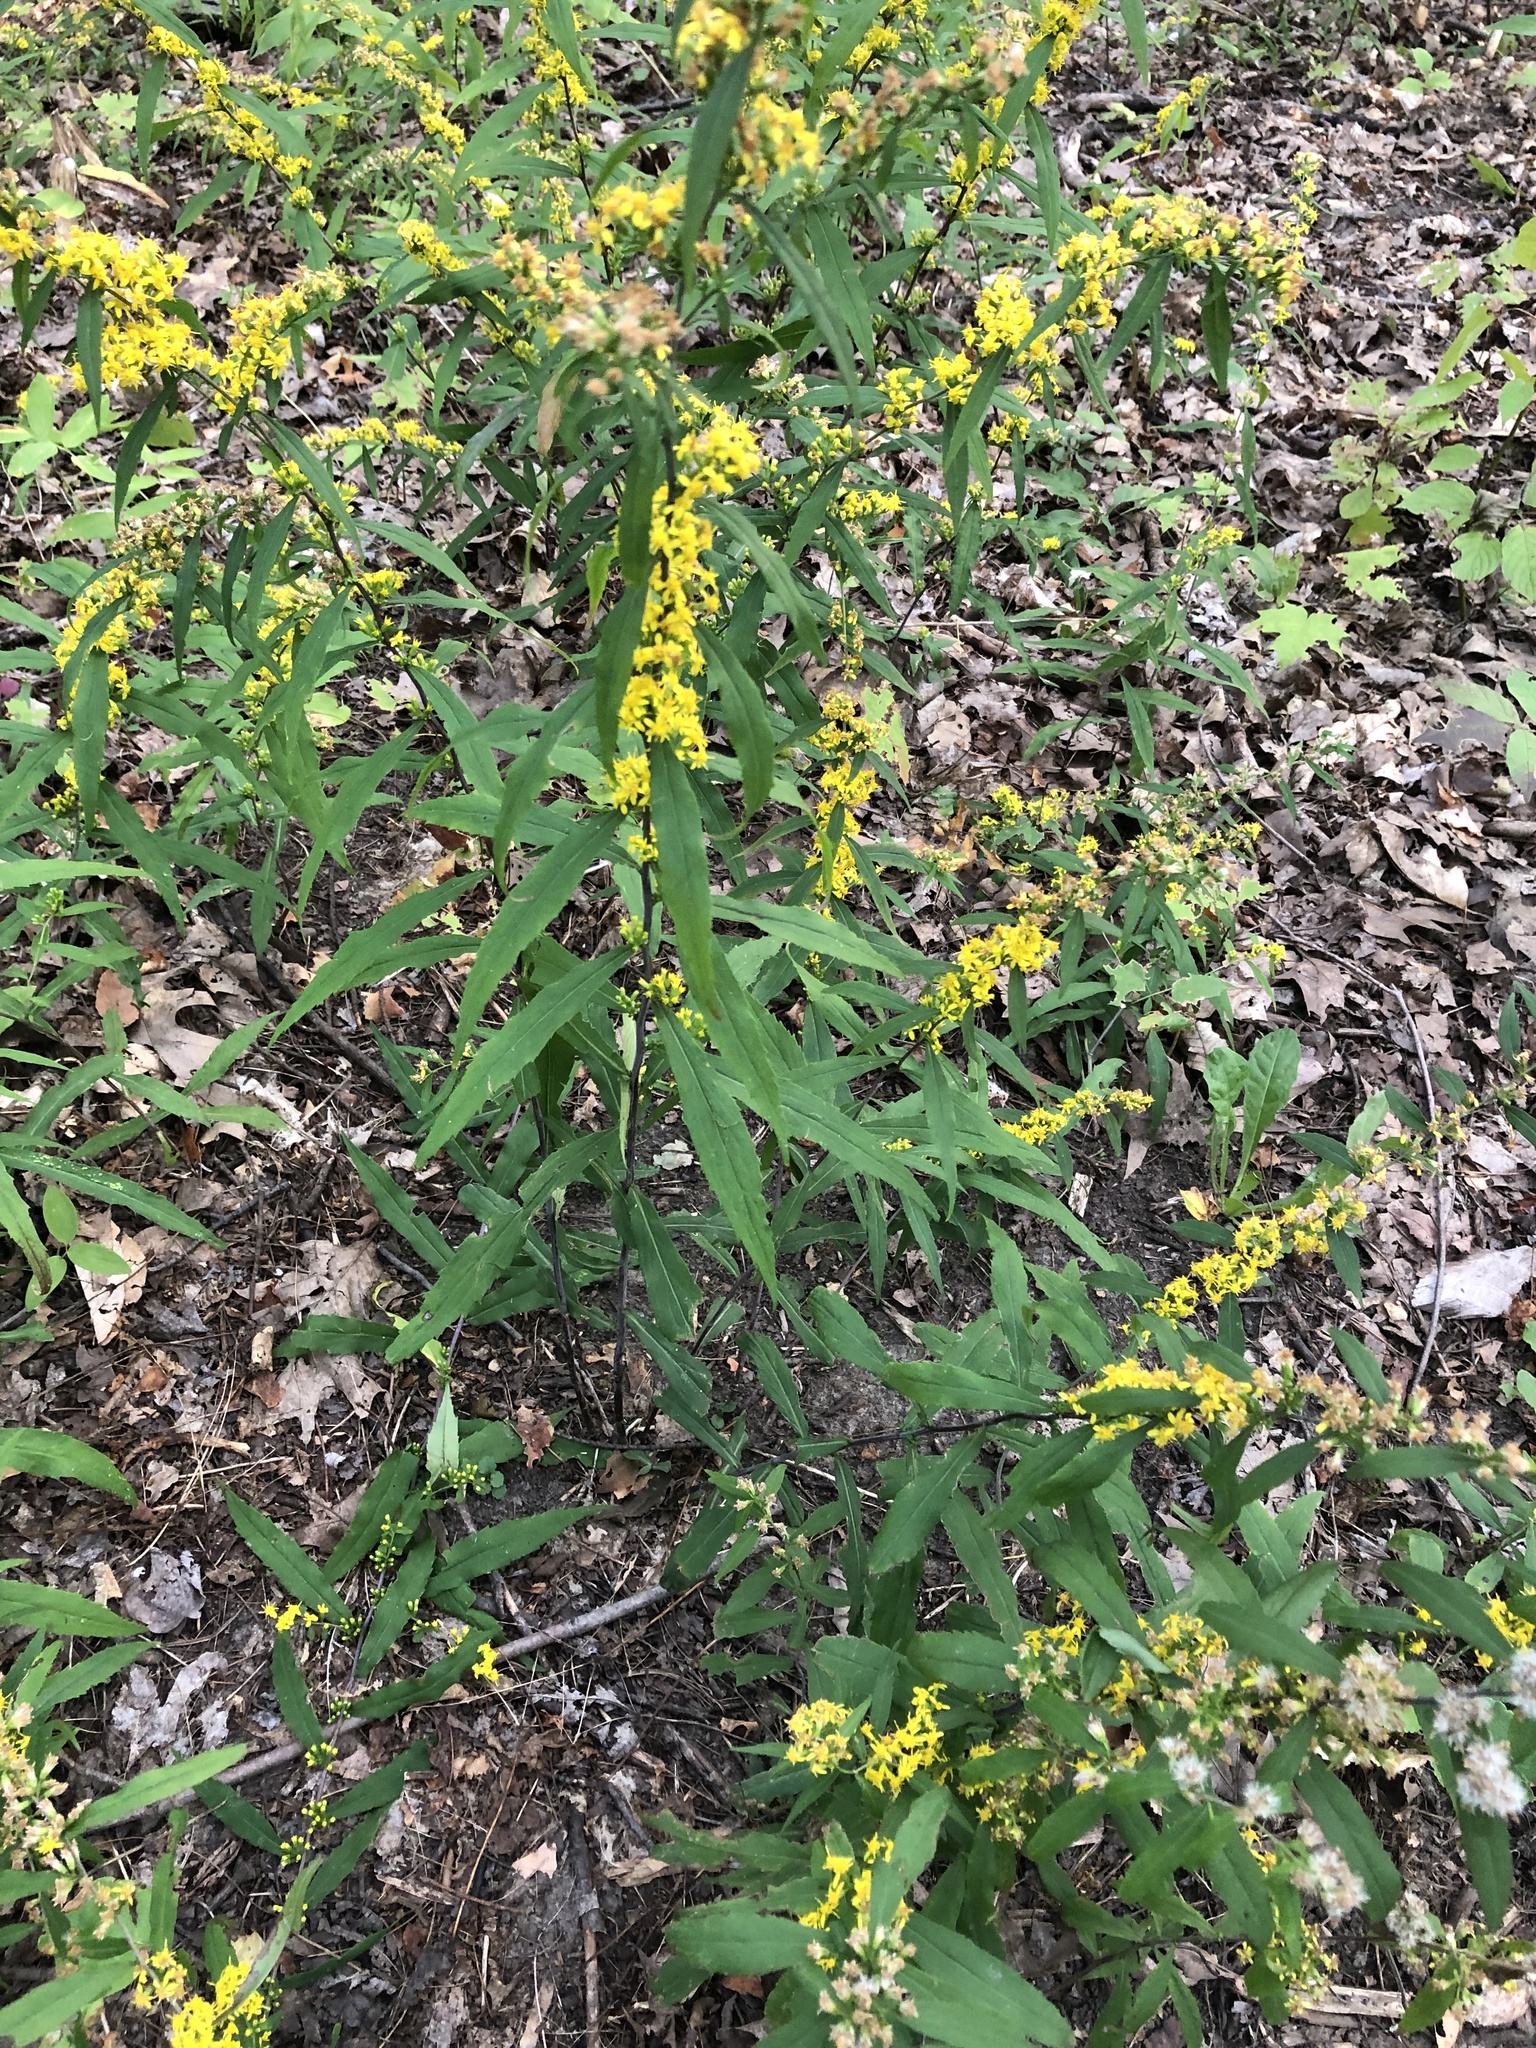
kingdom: Plantae
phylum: Tracheophyta
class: Magnoliopsida
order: Asterales
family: Asteraceae
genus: Solidago
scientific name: Solidago caesia
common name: Woodland goldenrod
